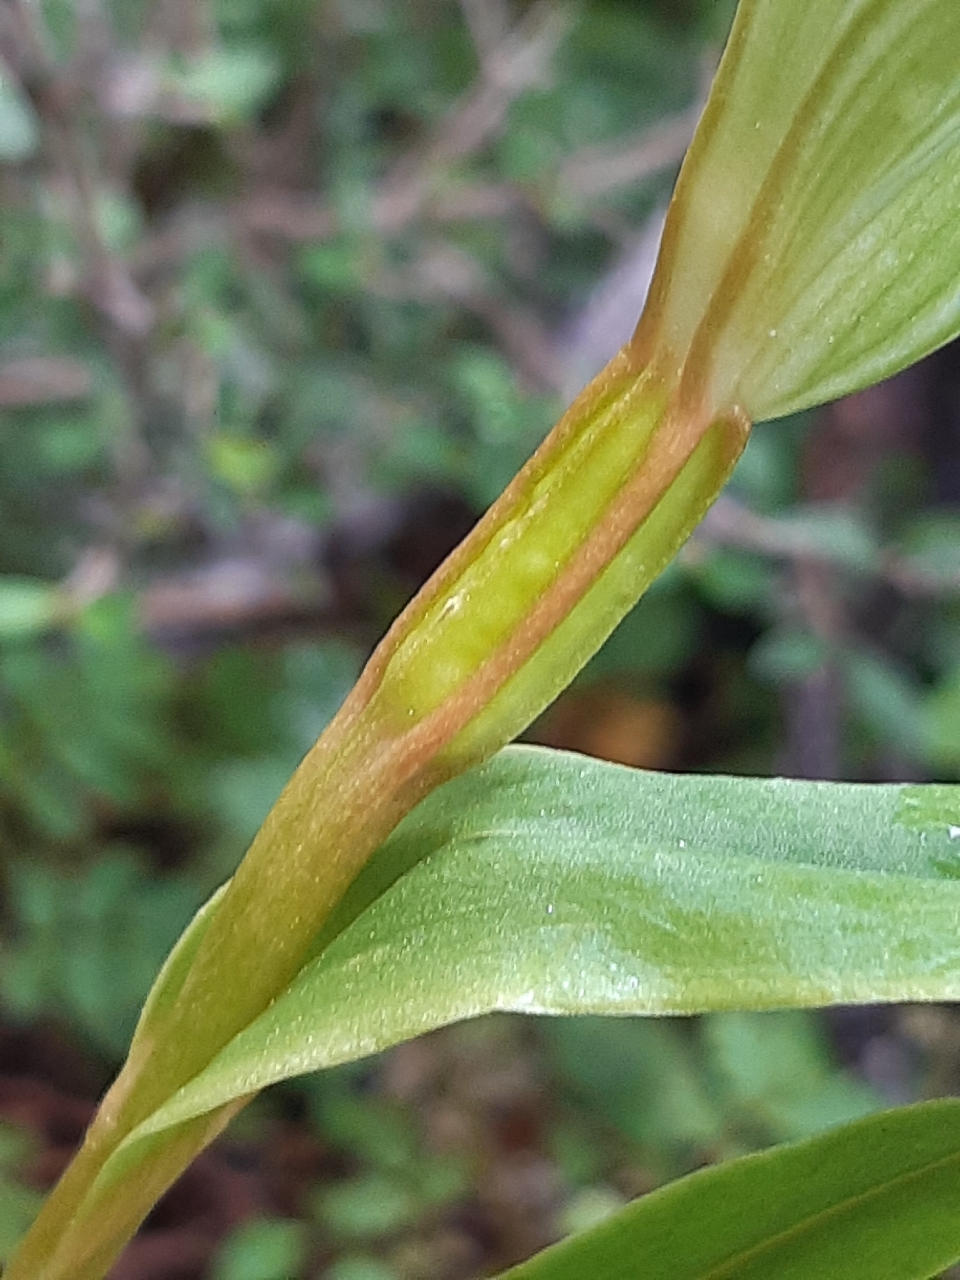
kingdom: Plantae
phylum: Tracheophyta
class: Liliopsida
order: Asparagales
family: Orchidaceae
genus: Pterostylis
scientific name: Pterostylis cardiostigma
